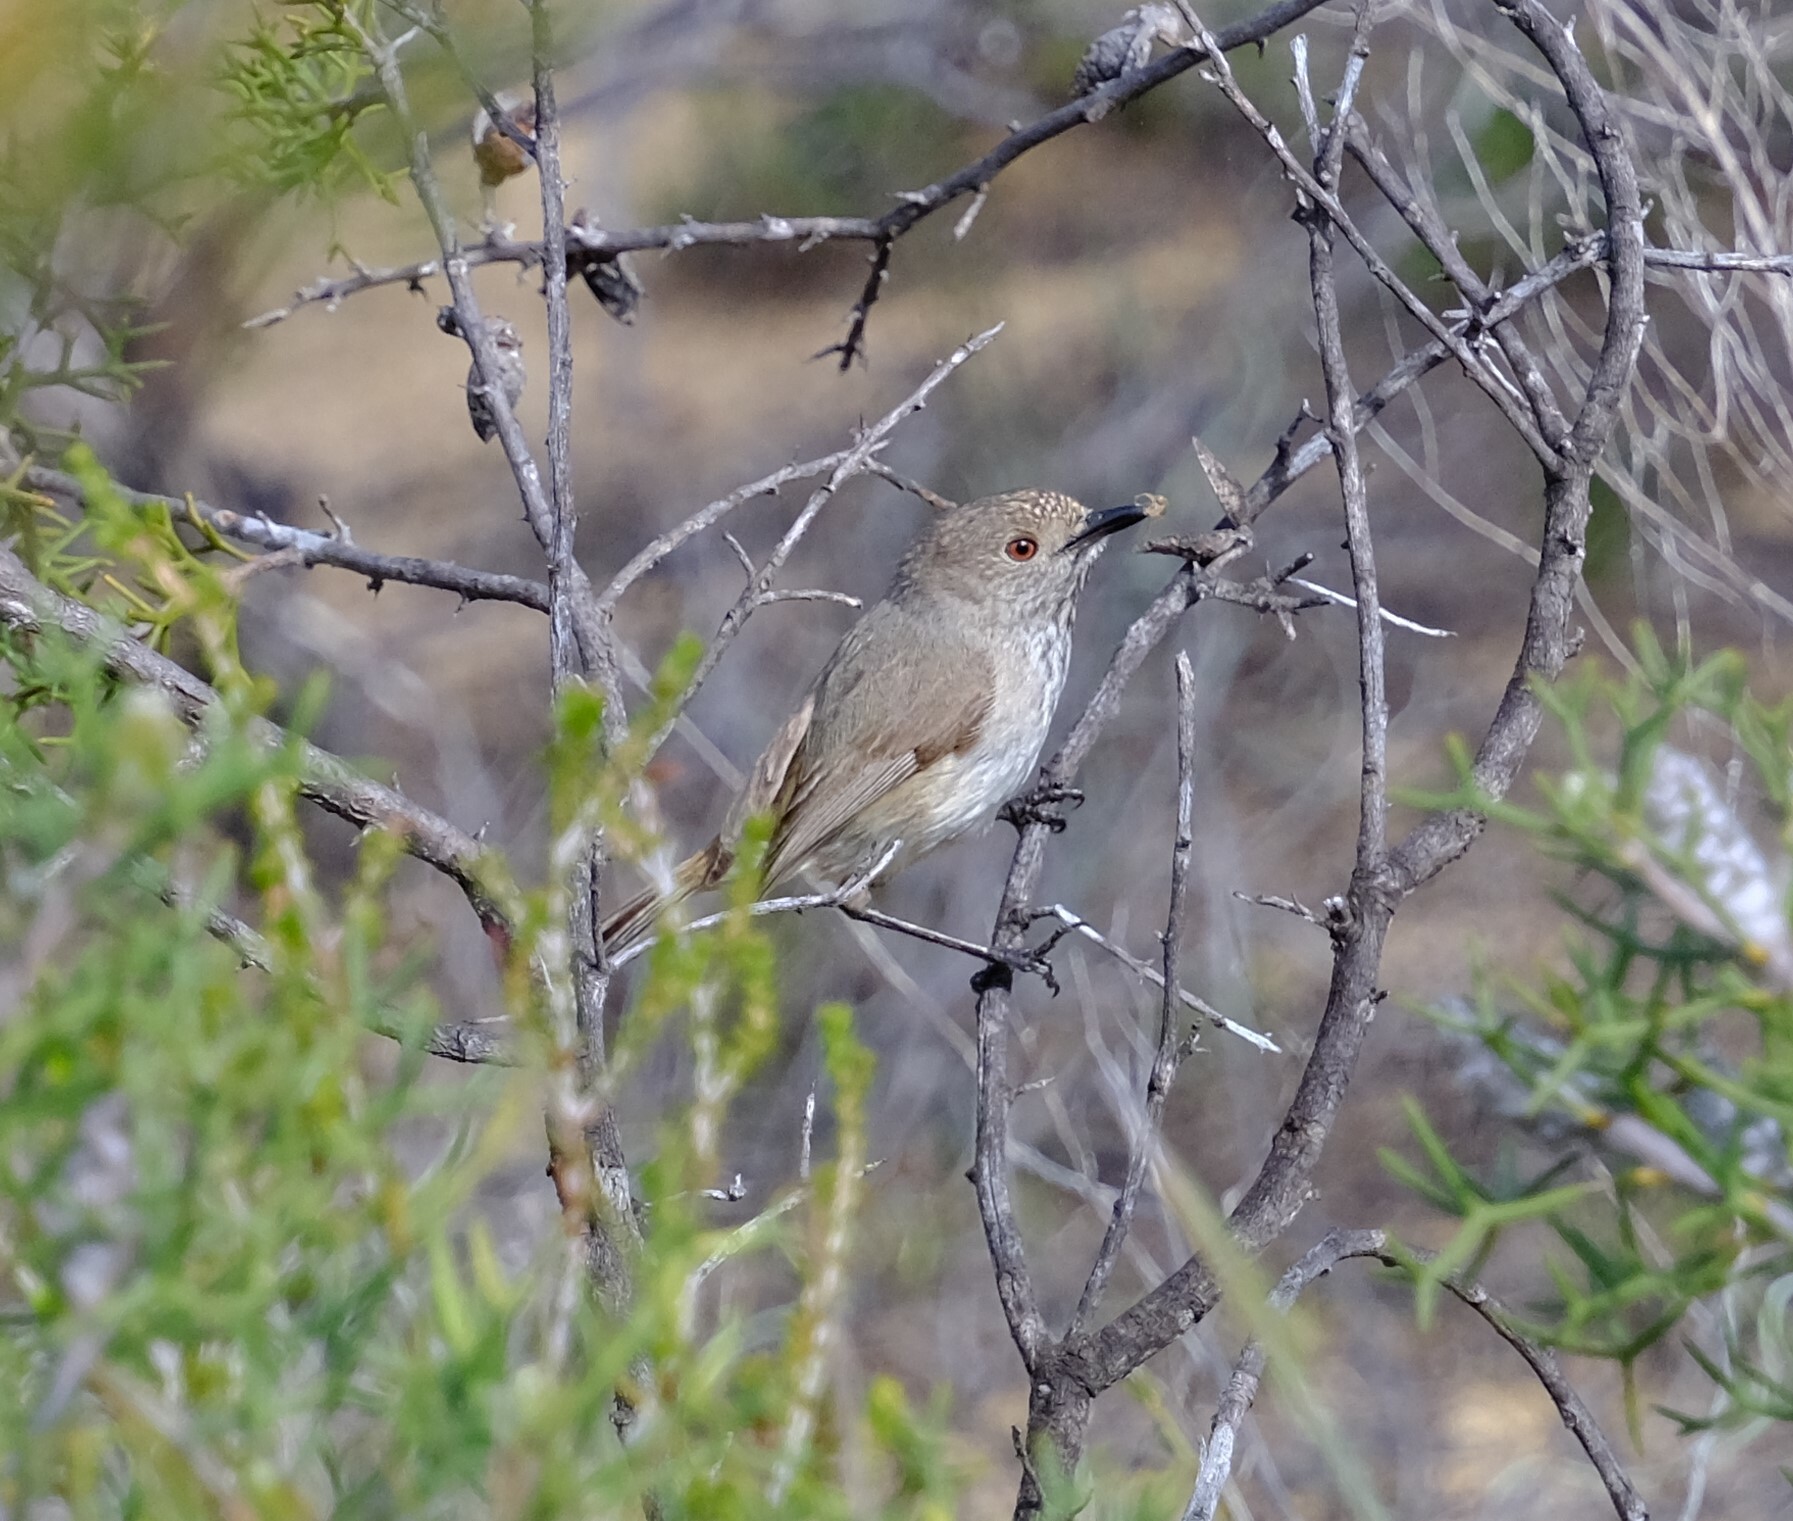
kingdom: Animalia
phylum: Chordata
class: Aves
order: Passeriformes
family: Acanthizidae
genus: Acanthiza
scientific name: Acanthiza apicalis
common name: Inland thornbill
